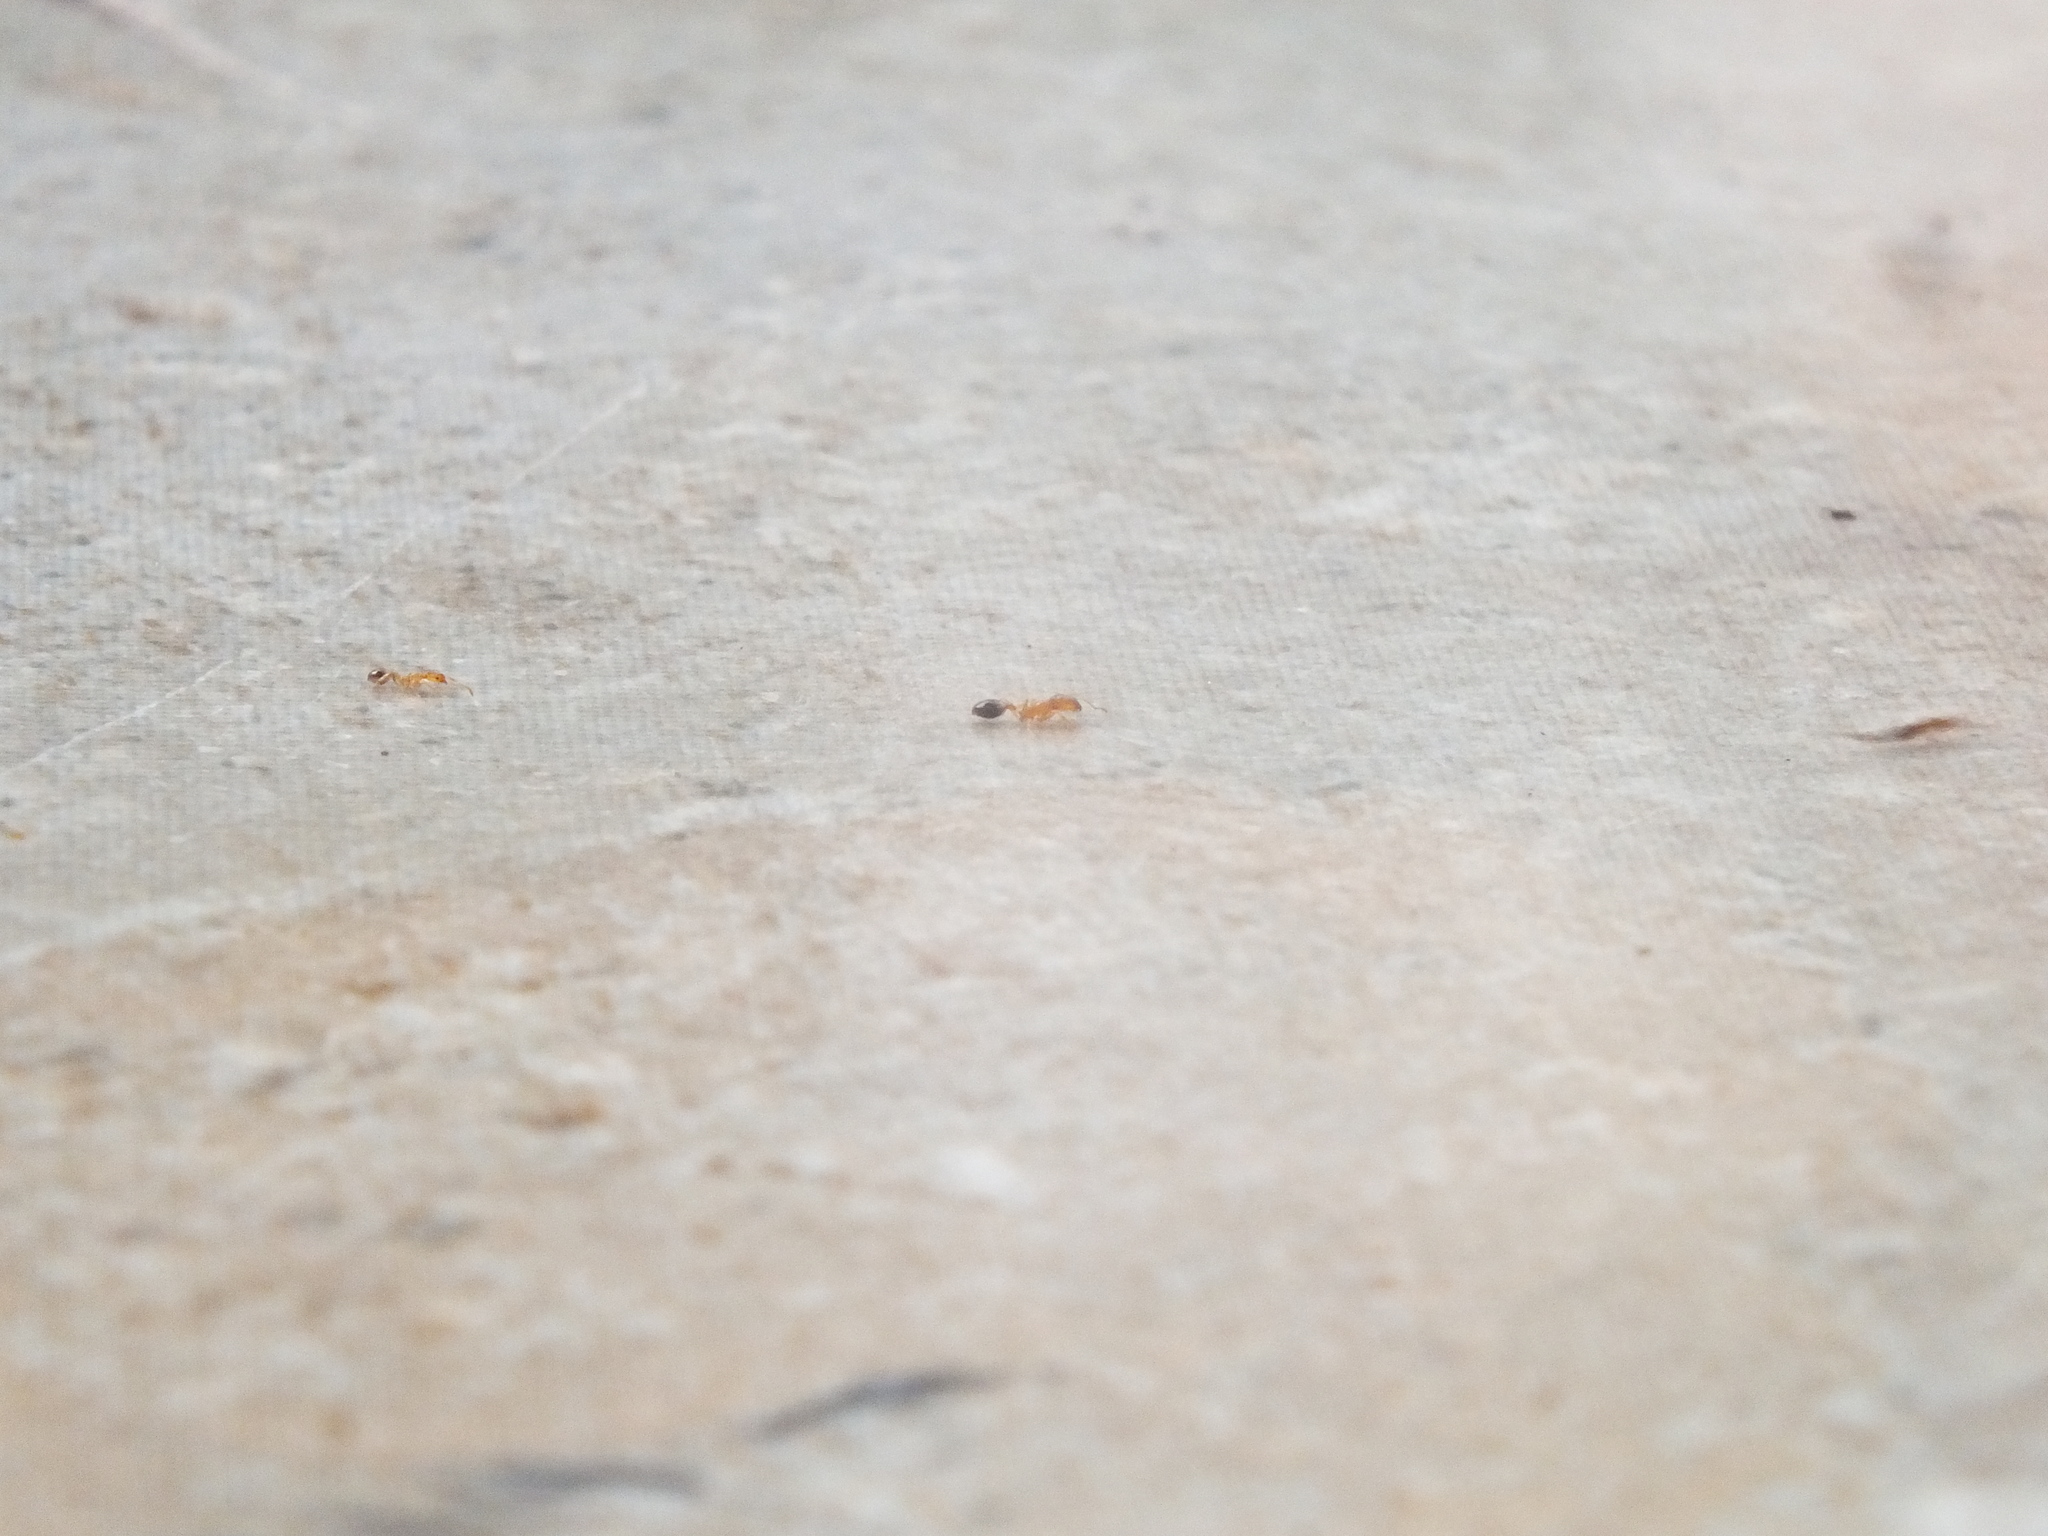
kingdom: Animalia
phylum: Arthropoda
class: Insecta
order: Hymenoptera
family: Formicidae
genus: Monomorium
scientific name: Monomorium destructor
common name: Destructive trailing ant
